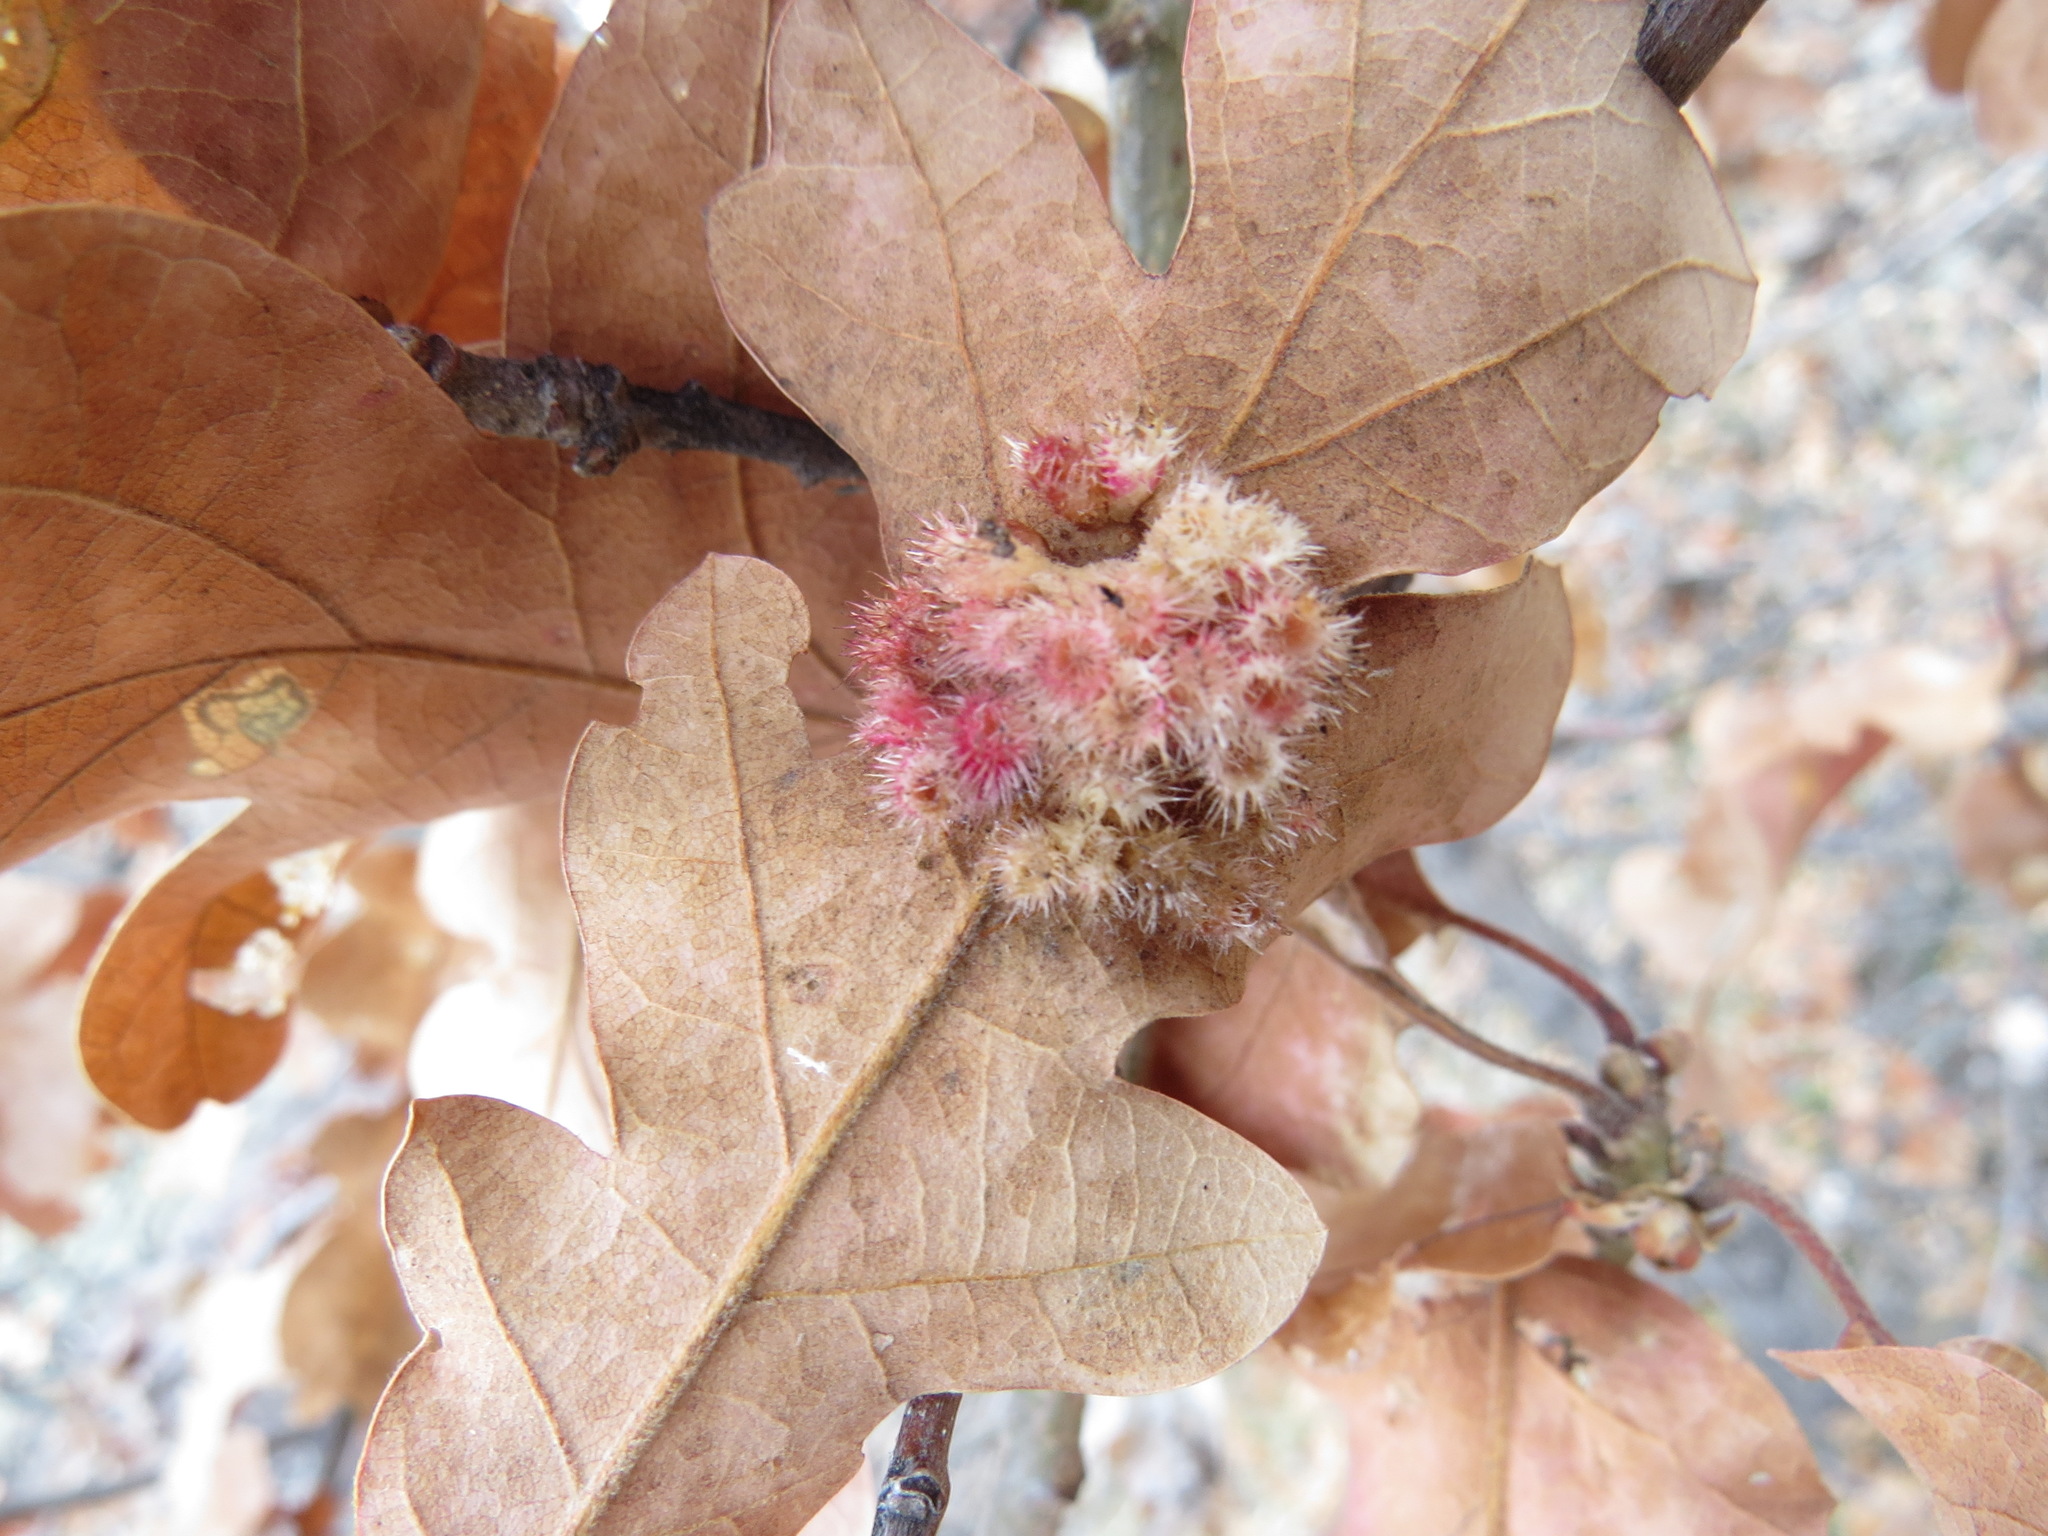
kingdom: Animalia
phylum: Arthropoda
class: Insecta
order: Hymenoptera
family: Cynipidae
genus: Andricus
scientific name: Andricus
